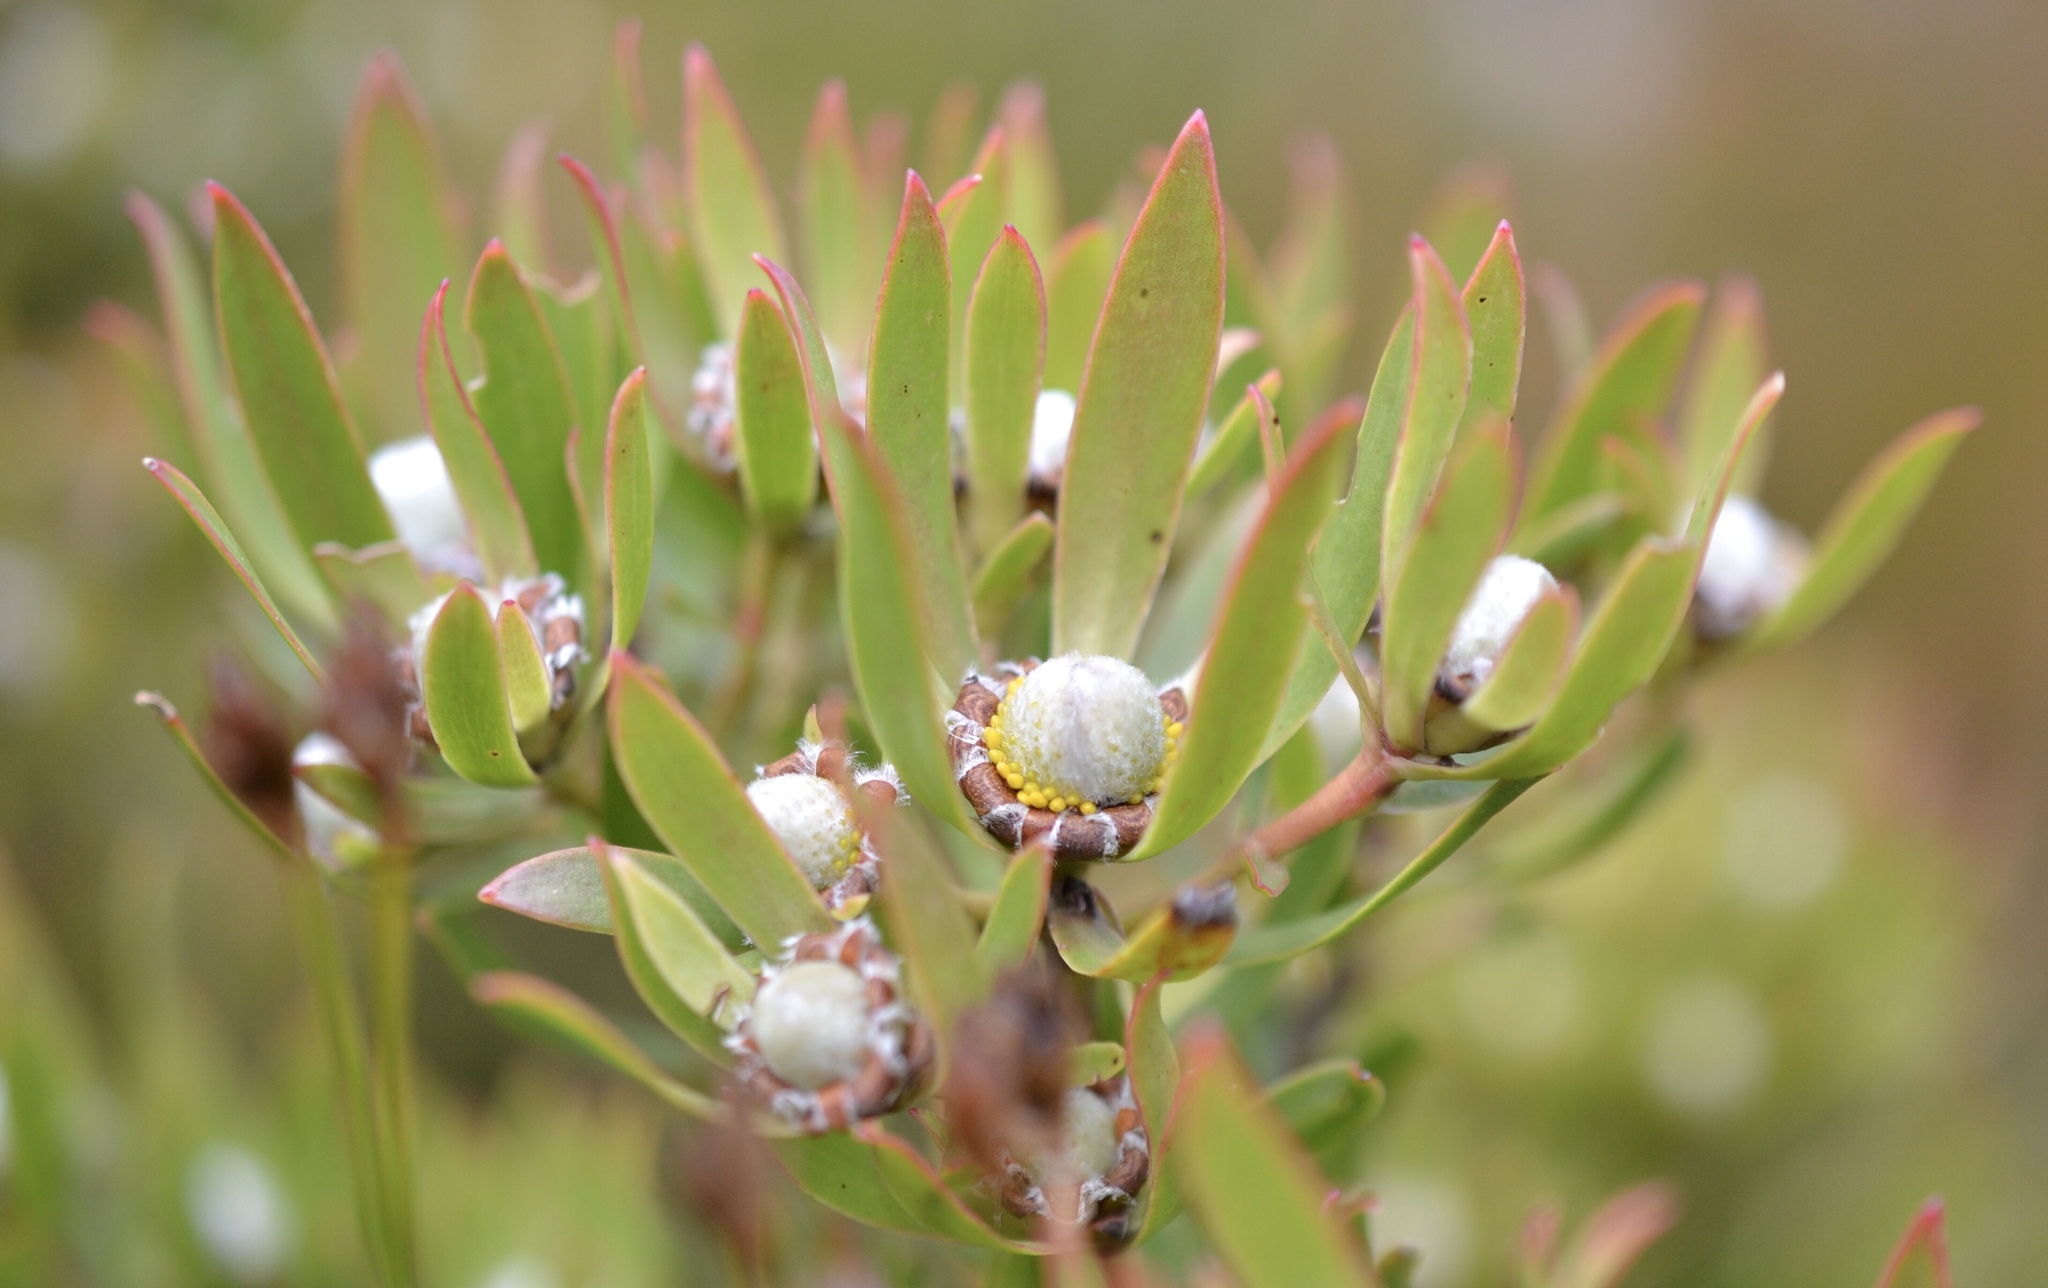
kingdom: Plantae
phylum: Tracheophyta
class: Magnoliopsida
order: Proteales
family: Proteaceae
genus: Leucadendron
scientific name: Leucadendron spissifolium
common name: Spear-leaf conebush
